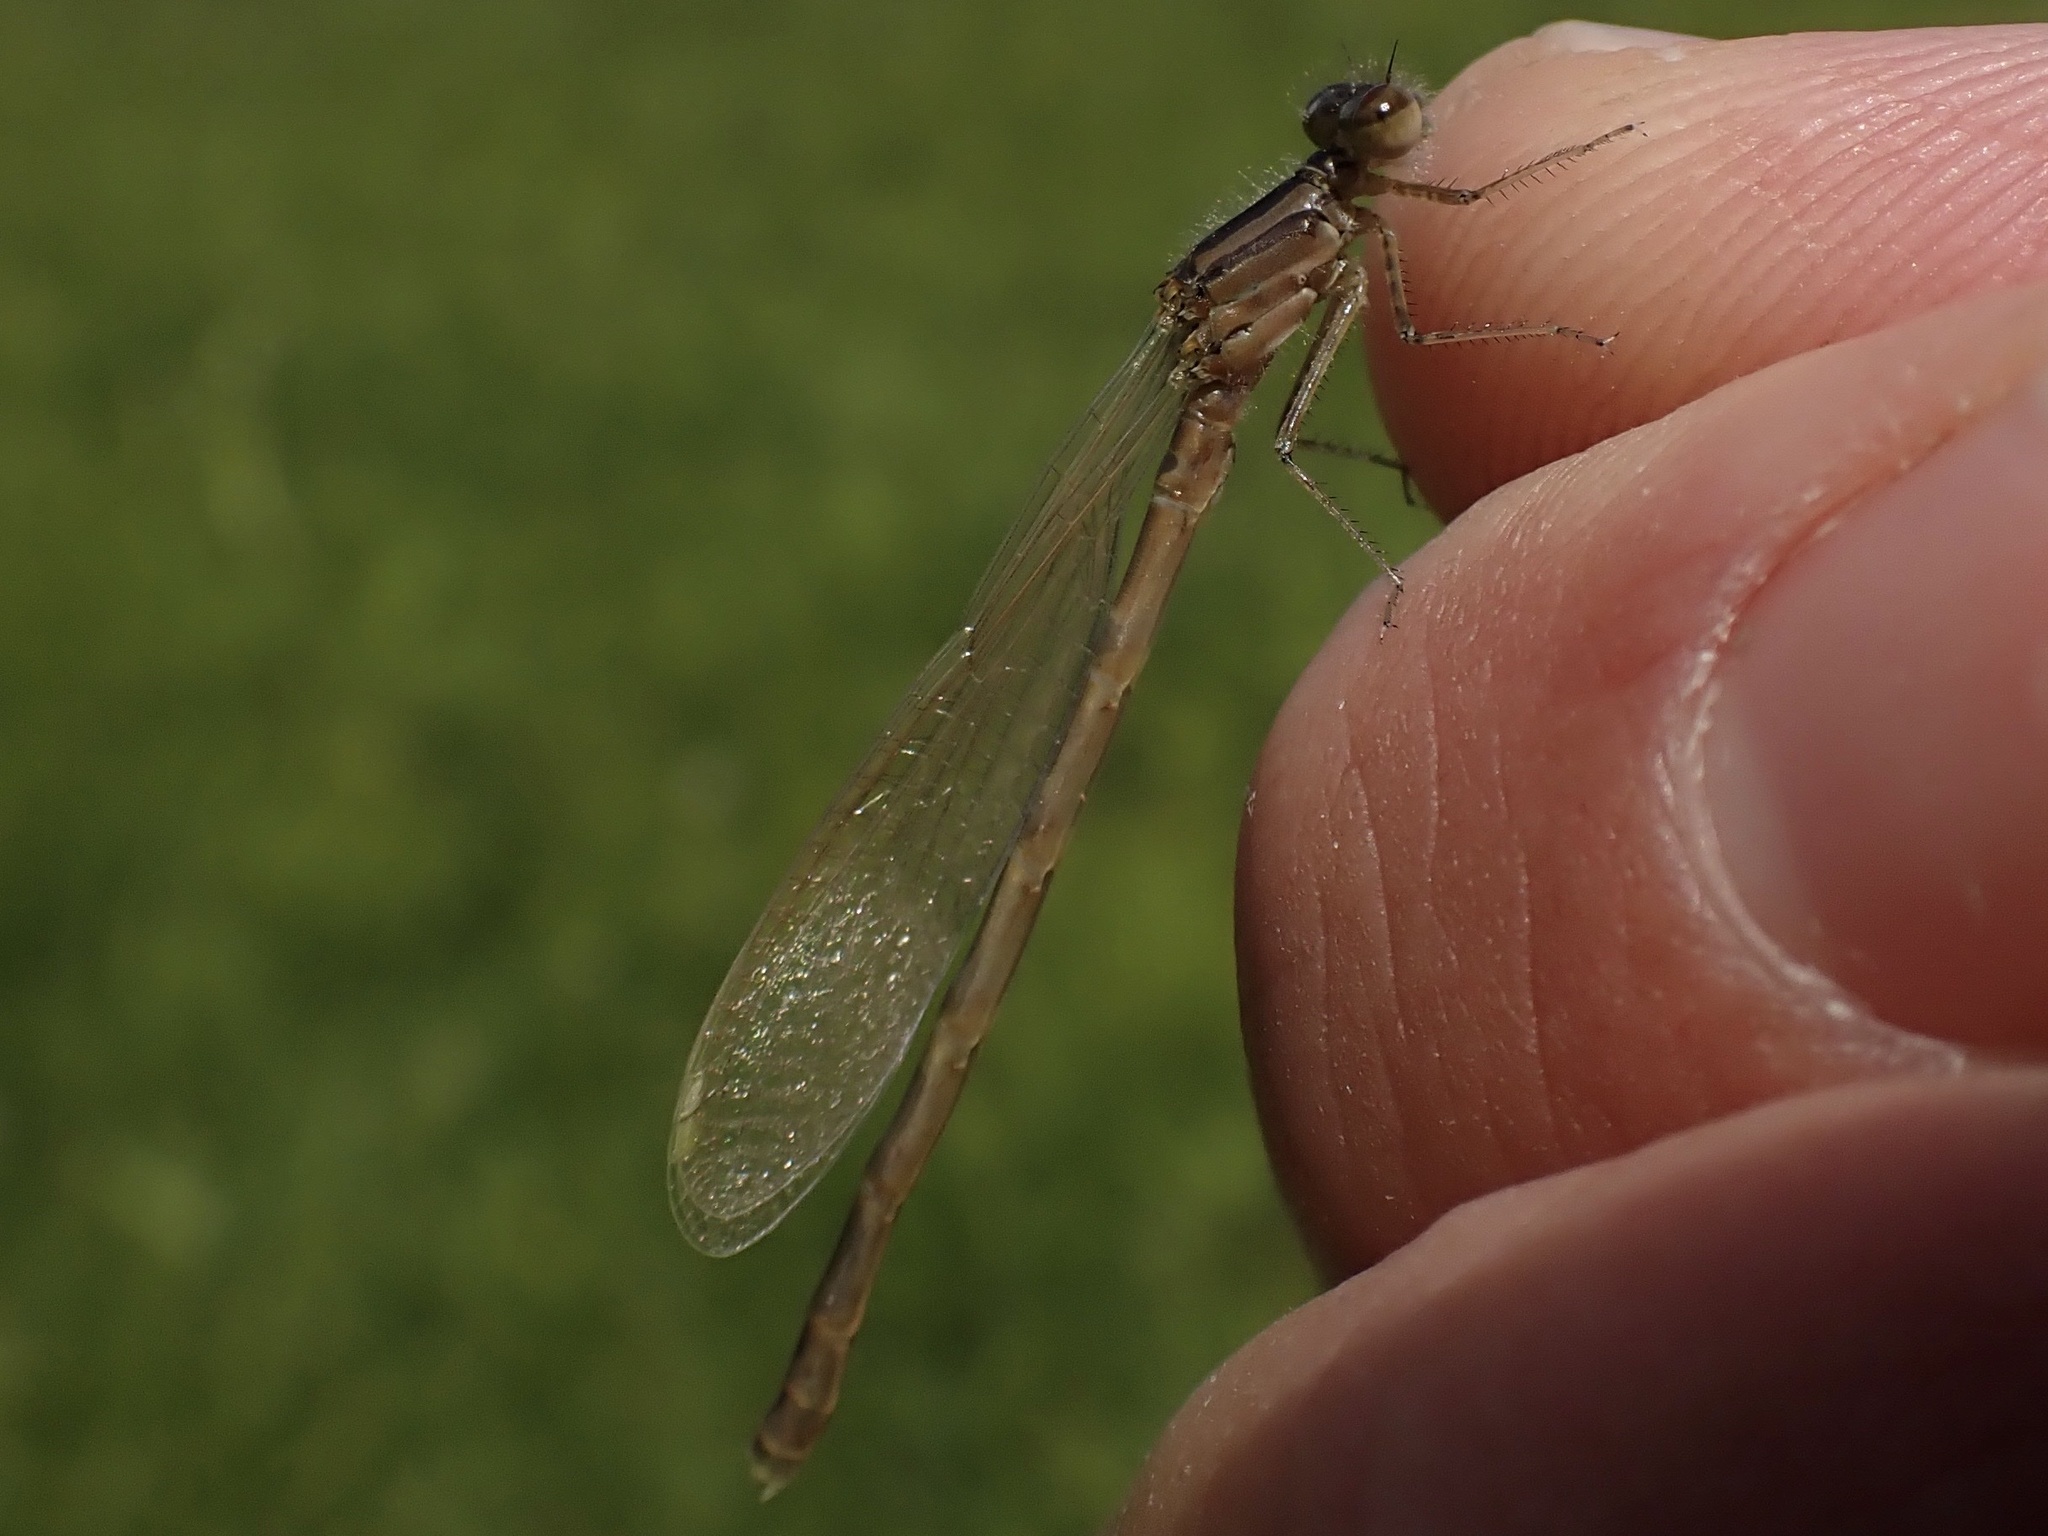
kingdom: Animalia
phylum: Arthropoda
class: Insecta
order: Odonata
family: Coenagrionidae
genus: Enallagma
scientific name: Enallagma cyathigerum
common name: Common blue damselfly
